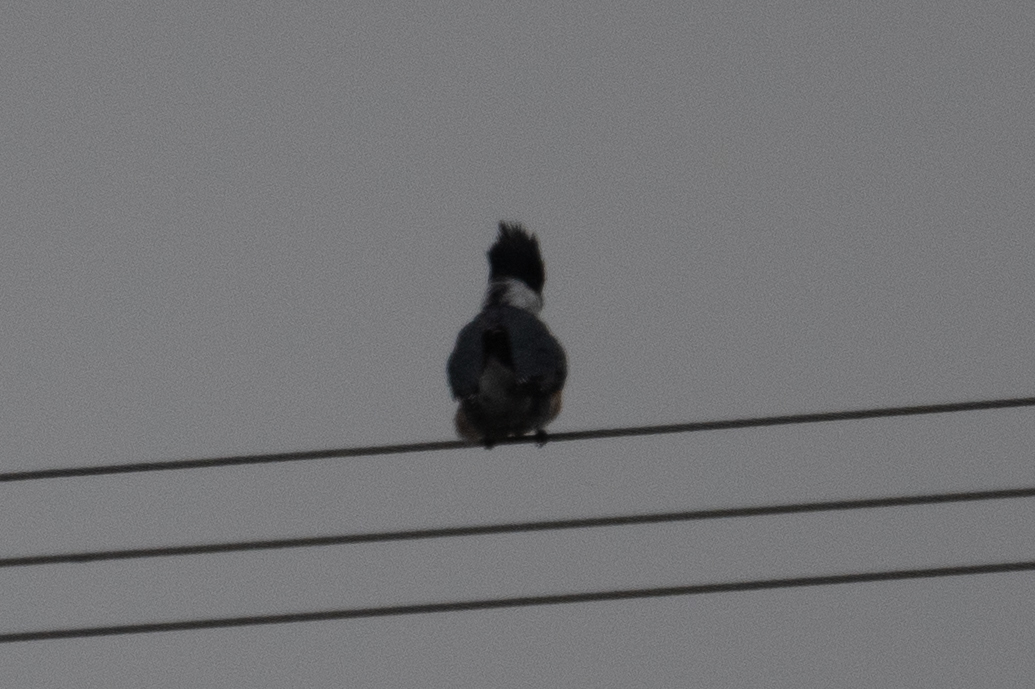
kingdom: Animalia
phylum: Chordata
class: Aves
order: Coraciiformes
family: Alcedinidae
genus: Megaceryle
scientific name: Megaceryle alcyon
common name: Belted kingfisher
